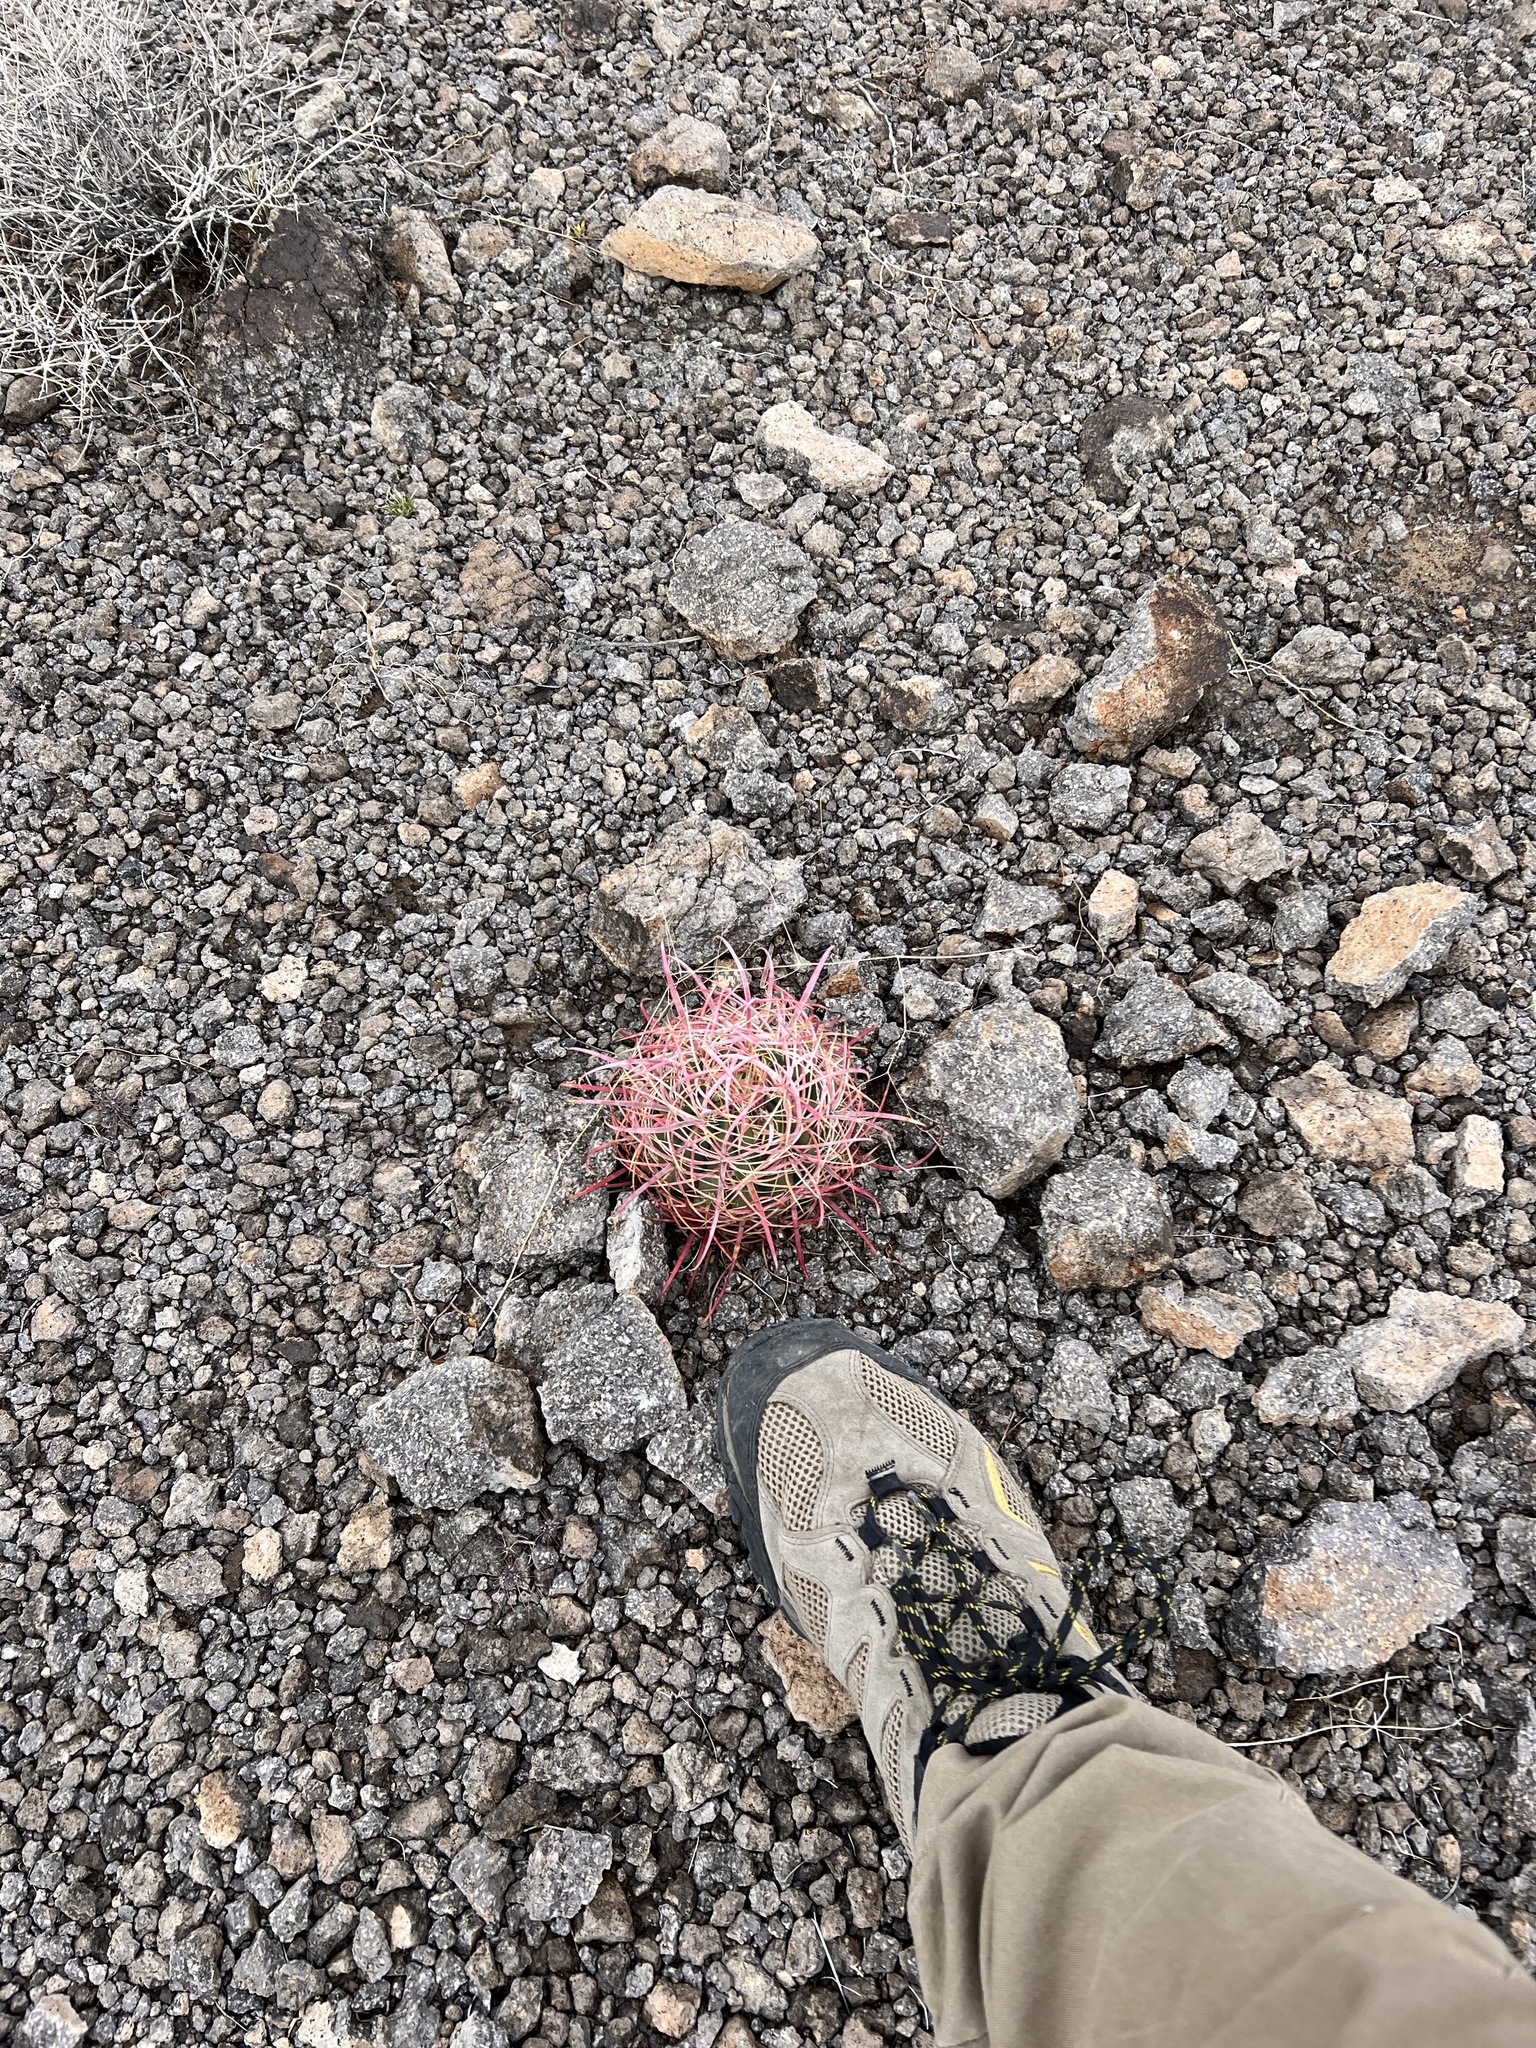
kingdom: Plantae
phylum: Tracheophyta
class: Magnoliopsida
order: Caryophyllales
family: Cactaceae
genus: Ferocactus
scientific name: Ferocactus cylindraceus
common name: California barrel cactus
